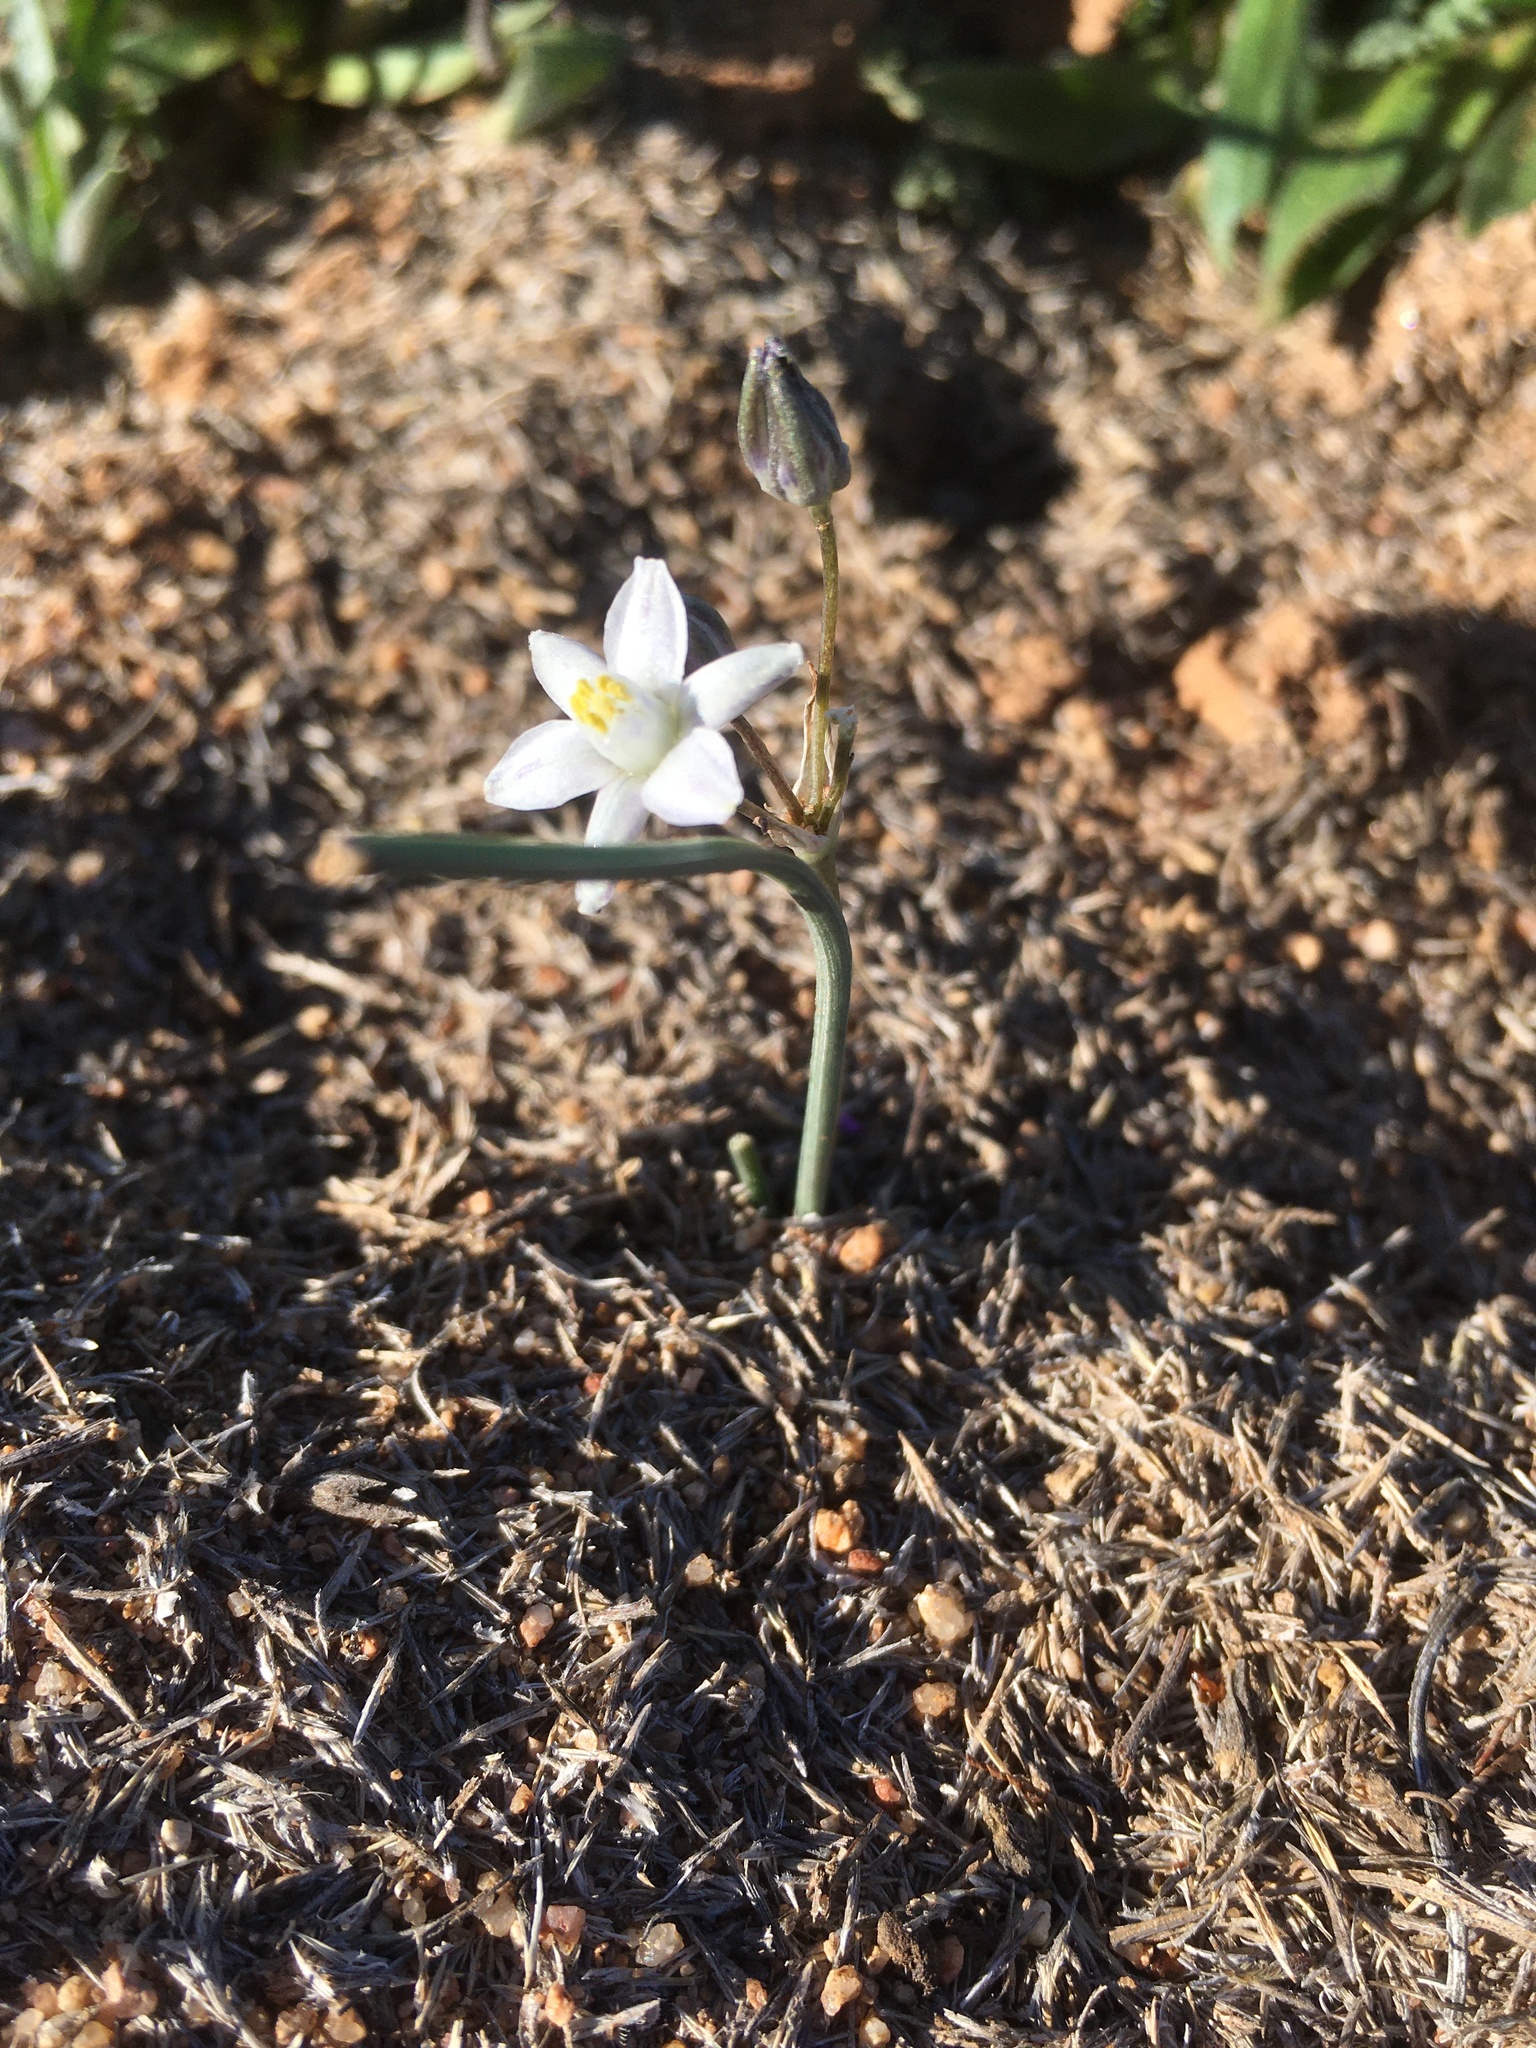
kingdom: Plantae
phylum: Tracheophyta
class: Liliopsida
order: Asparagales
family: Asparagaceae
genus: Muilla
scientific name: Muilla lordsburgana
